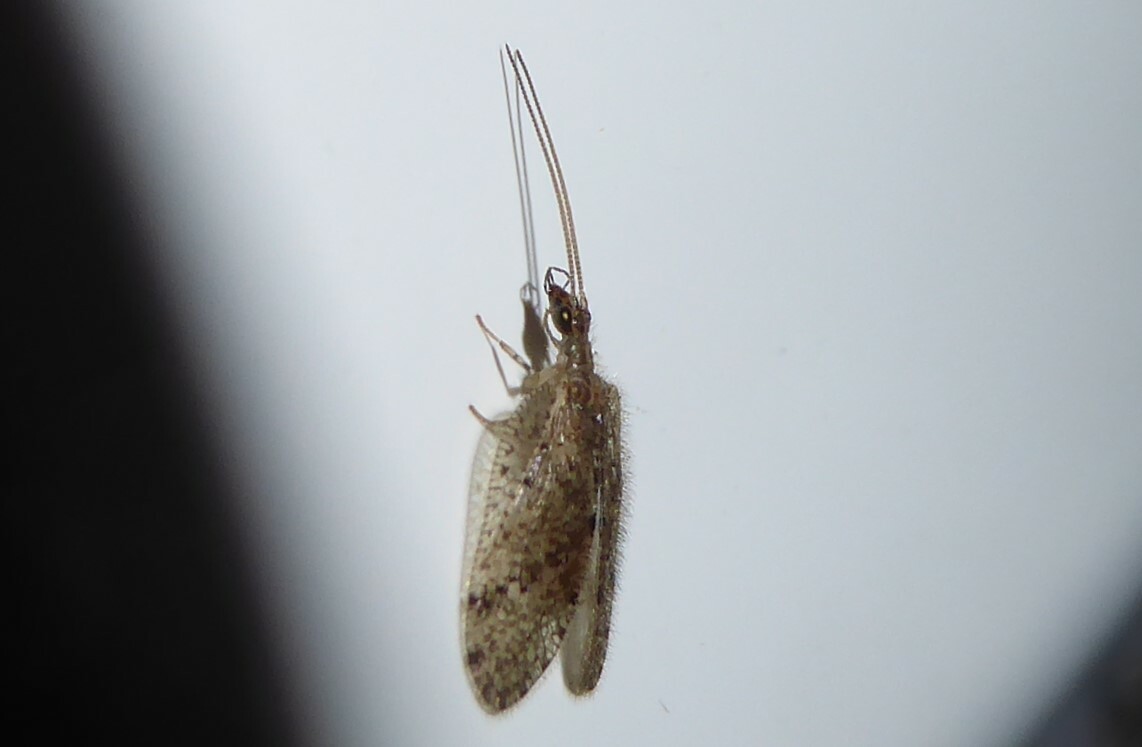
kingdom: Animalia
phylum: Arthropoda
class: Insecta
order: Neuroptera
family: Hemerobiidae
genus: Psectra
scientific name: Psectra nakaharai
